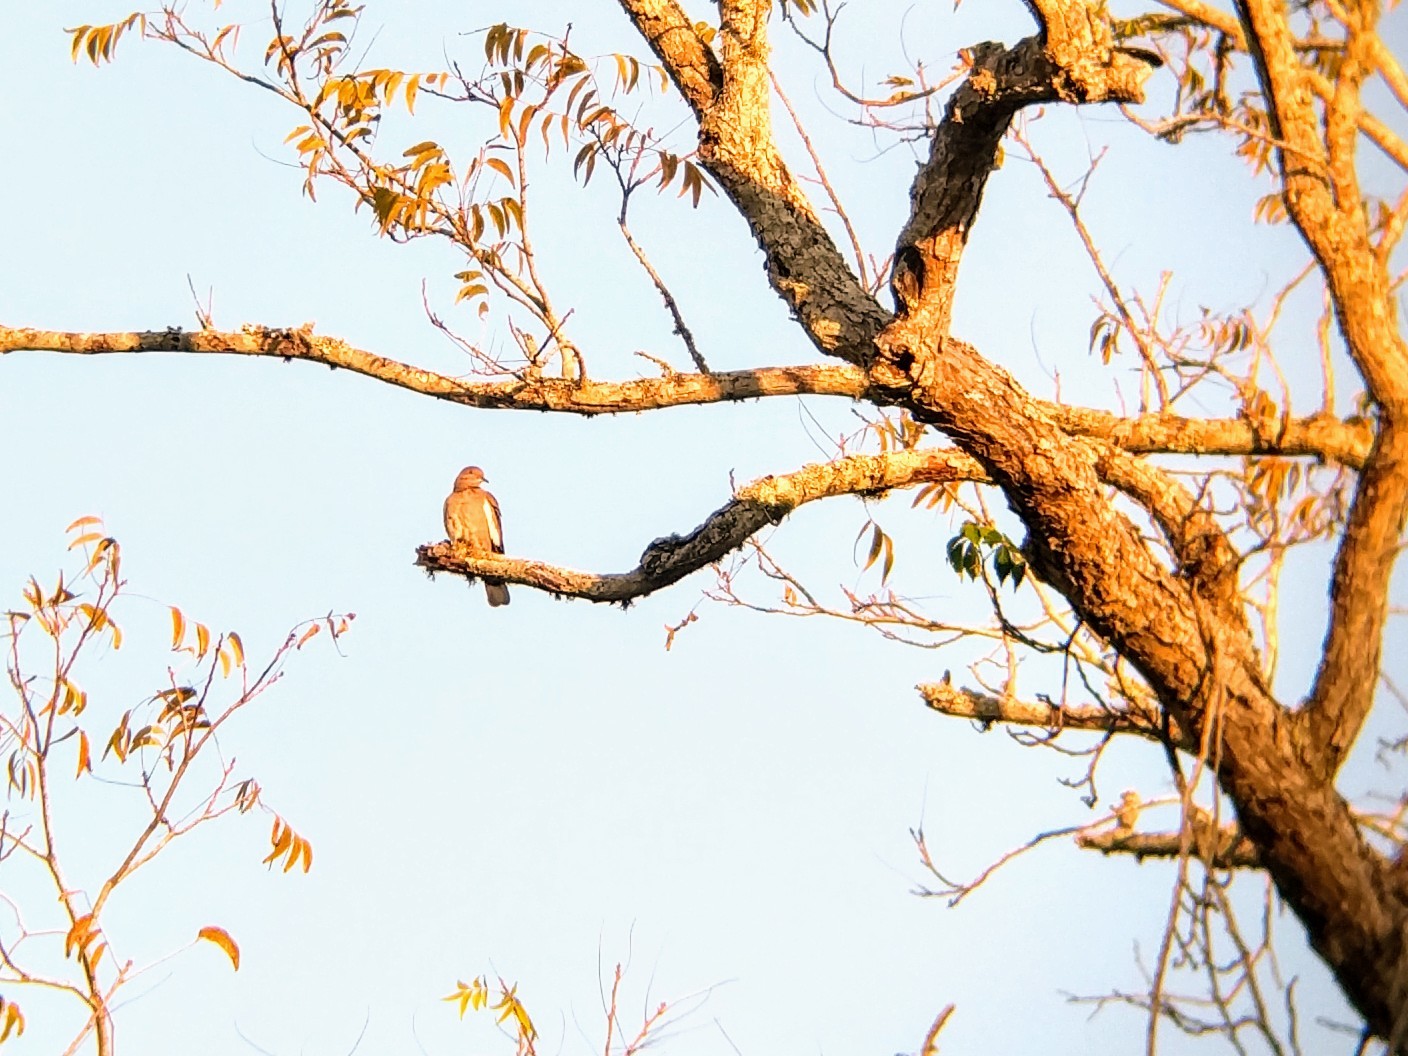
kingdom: Animalia
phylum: Chordata
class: Aves
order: Columbiformes
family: Columbidae
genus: Zenaida
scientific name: Zenaida asiatica
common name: White-winged dove
